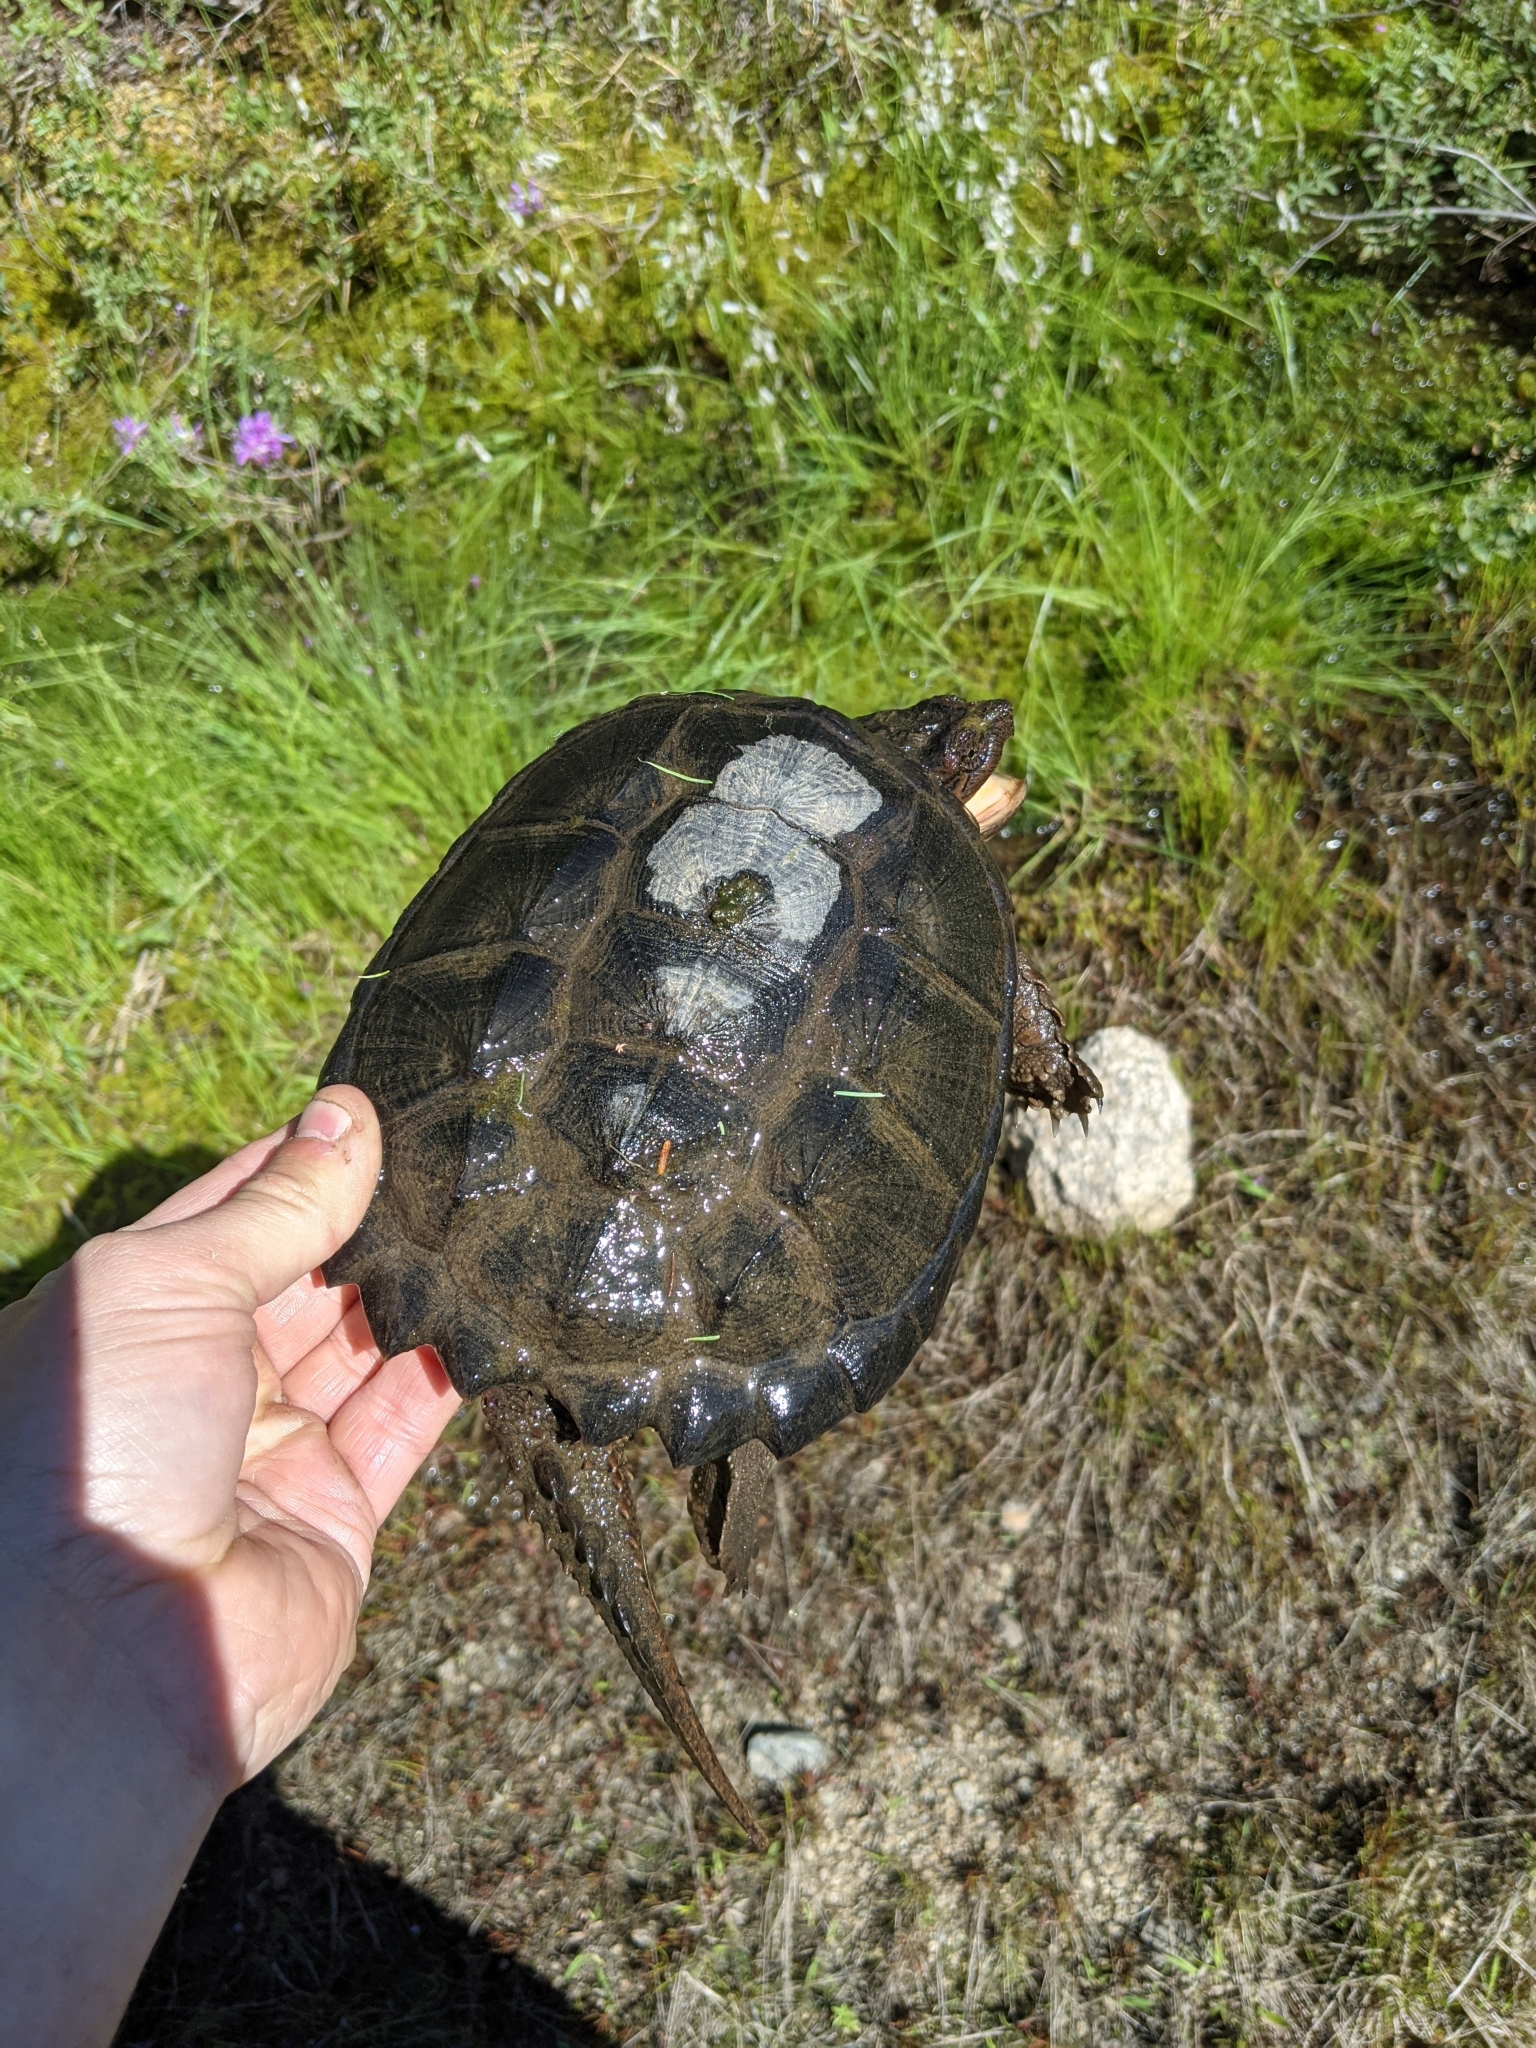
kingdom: Animalia
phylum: Chordata
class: Testudines
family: Chelydridae
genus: Chelydra
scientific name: Chelydra serpentina
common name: Common snapping turtle
